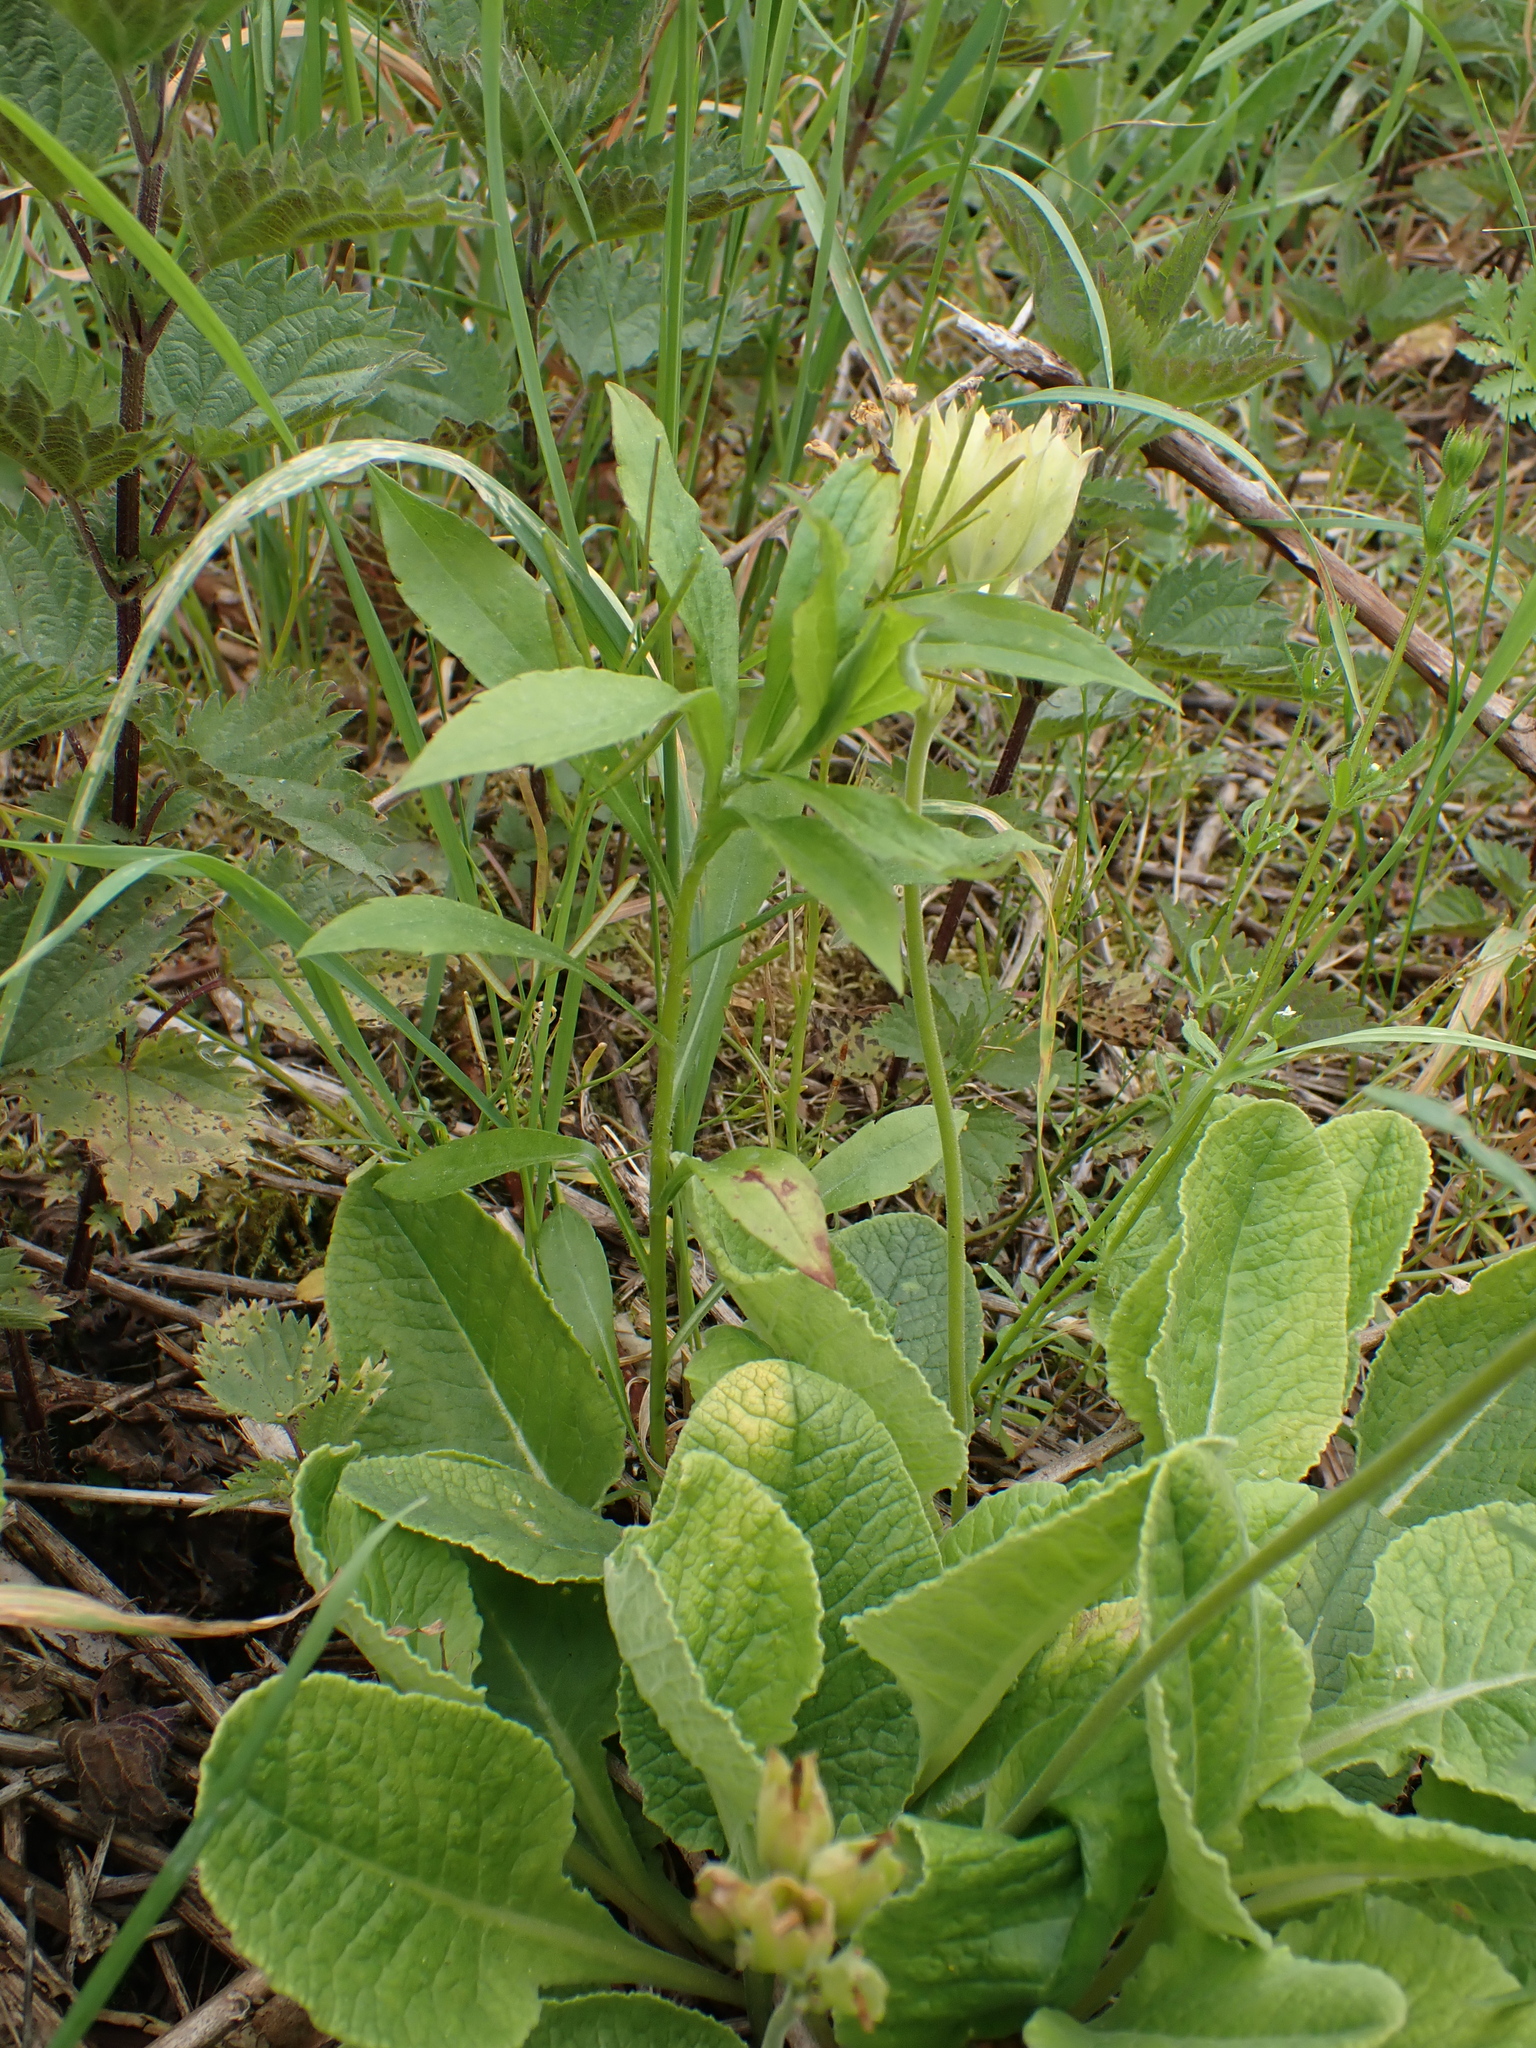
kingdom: Plantae
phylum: Tracheophyta
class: Magnoliopsida
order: Ericales
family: Primulaceae
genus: Primula
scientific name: Primula veris
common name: Cowslip
